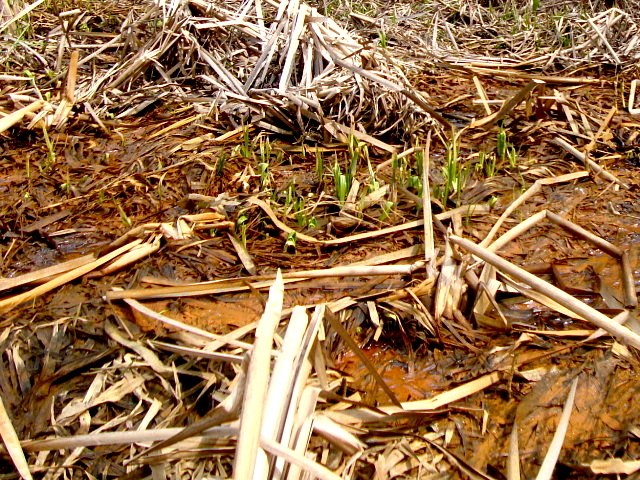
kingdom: Bacteria
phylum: Proteobacteria
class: Gammaproteobacteria
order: Burkholderiales
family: Burkholderiaceae
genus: Leptothrix
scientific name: Leptothrix
